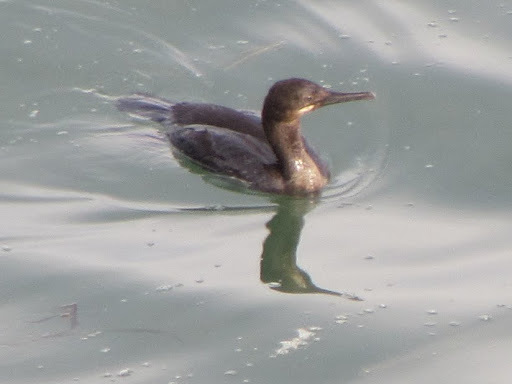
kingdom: Animalia
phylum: Chordata
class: Aves
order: Suliformes
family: Phalacrocoracidae
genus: Urile
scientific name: Urile penicillatus
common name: Brandt's cormorant
